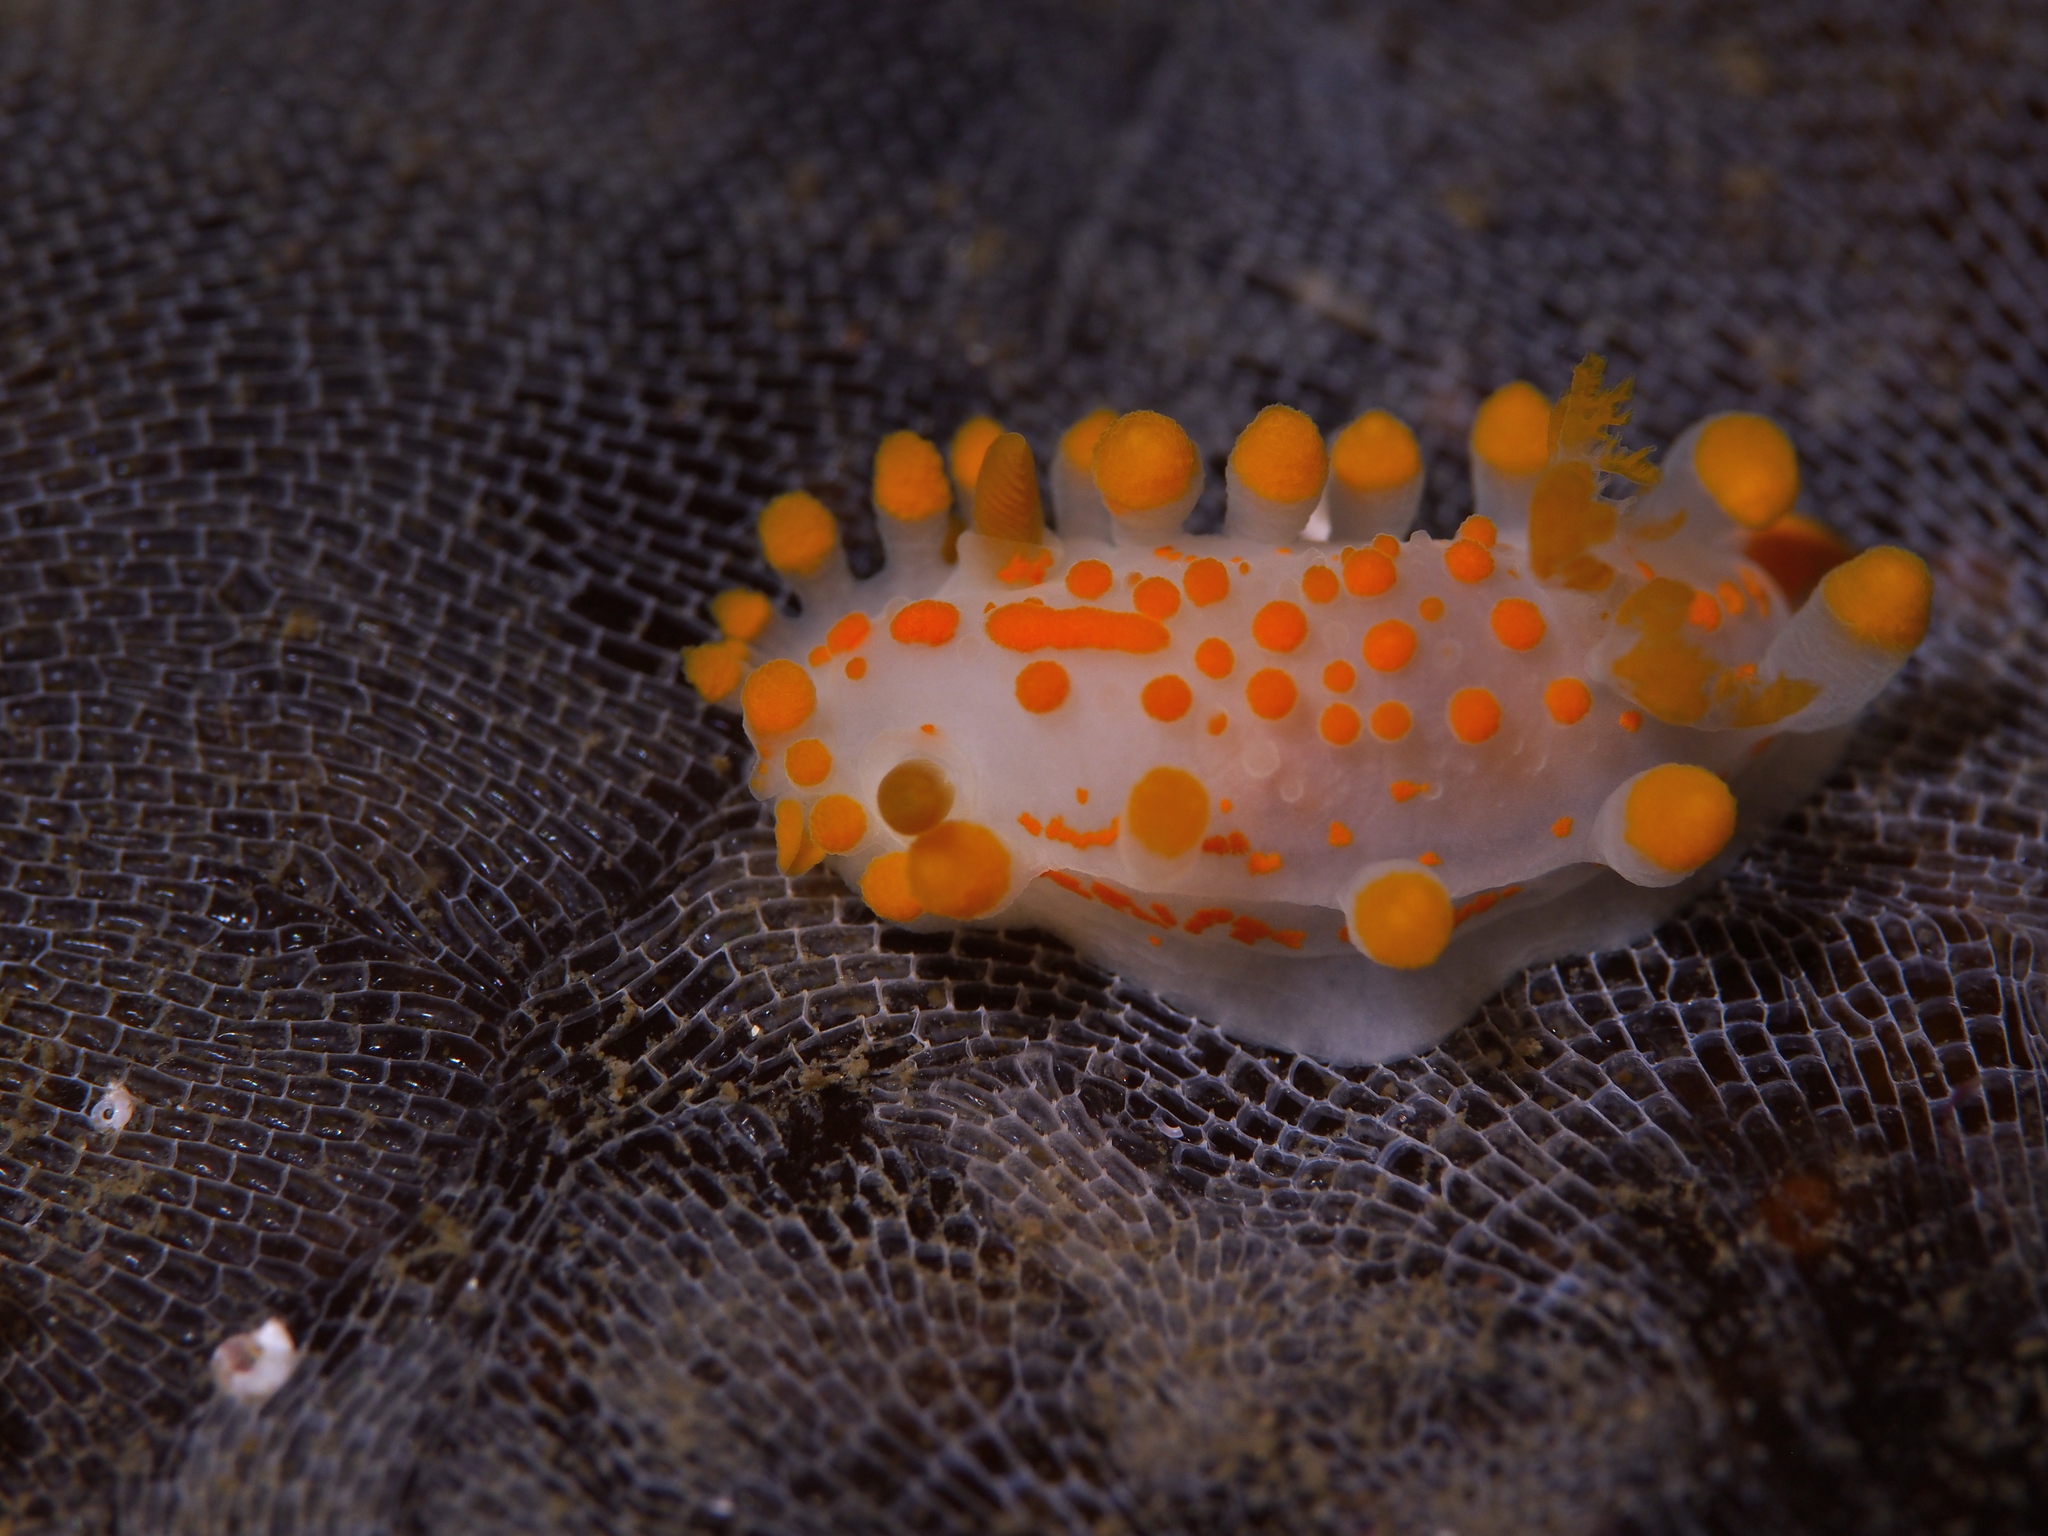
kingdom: Animalia
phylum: Mollusca
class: Gastropoda
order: Nudibranchia
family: Polyceridae
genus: Limacia
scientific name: Limacia clavigera
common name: Orange-clubbed sea slug
